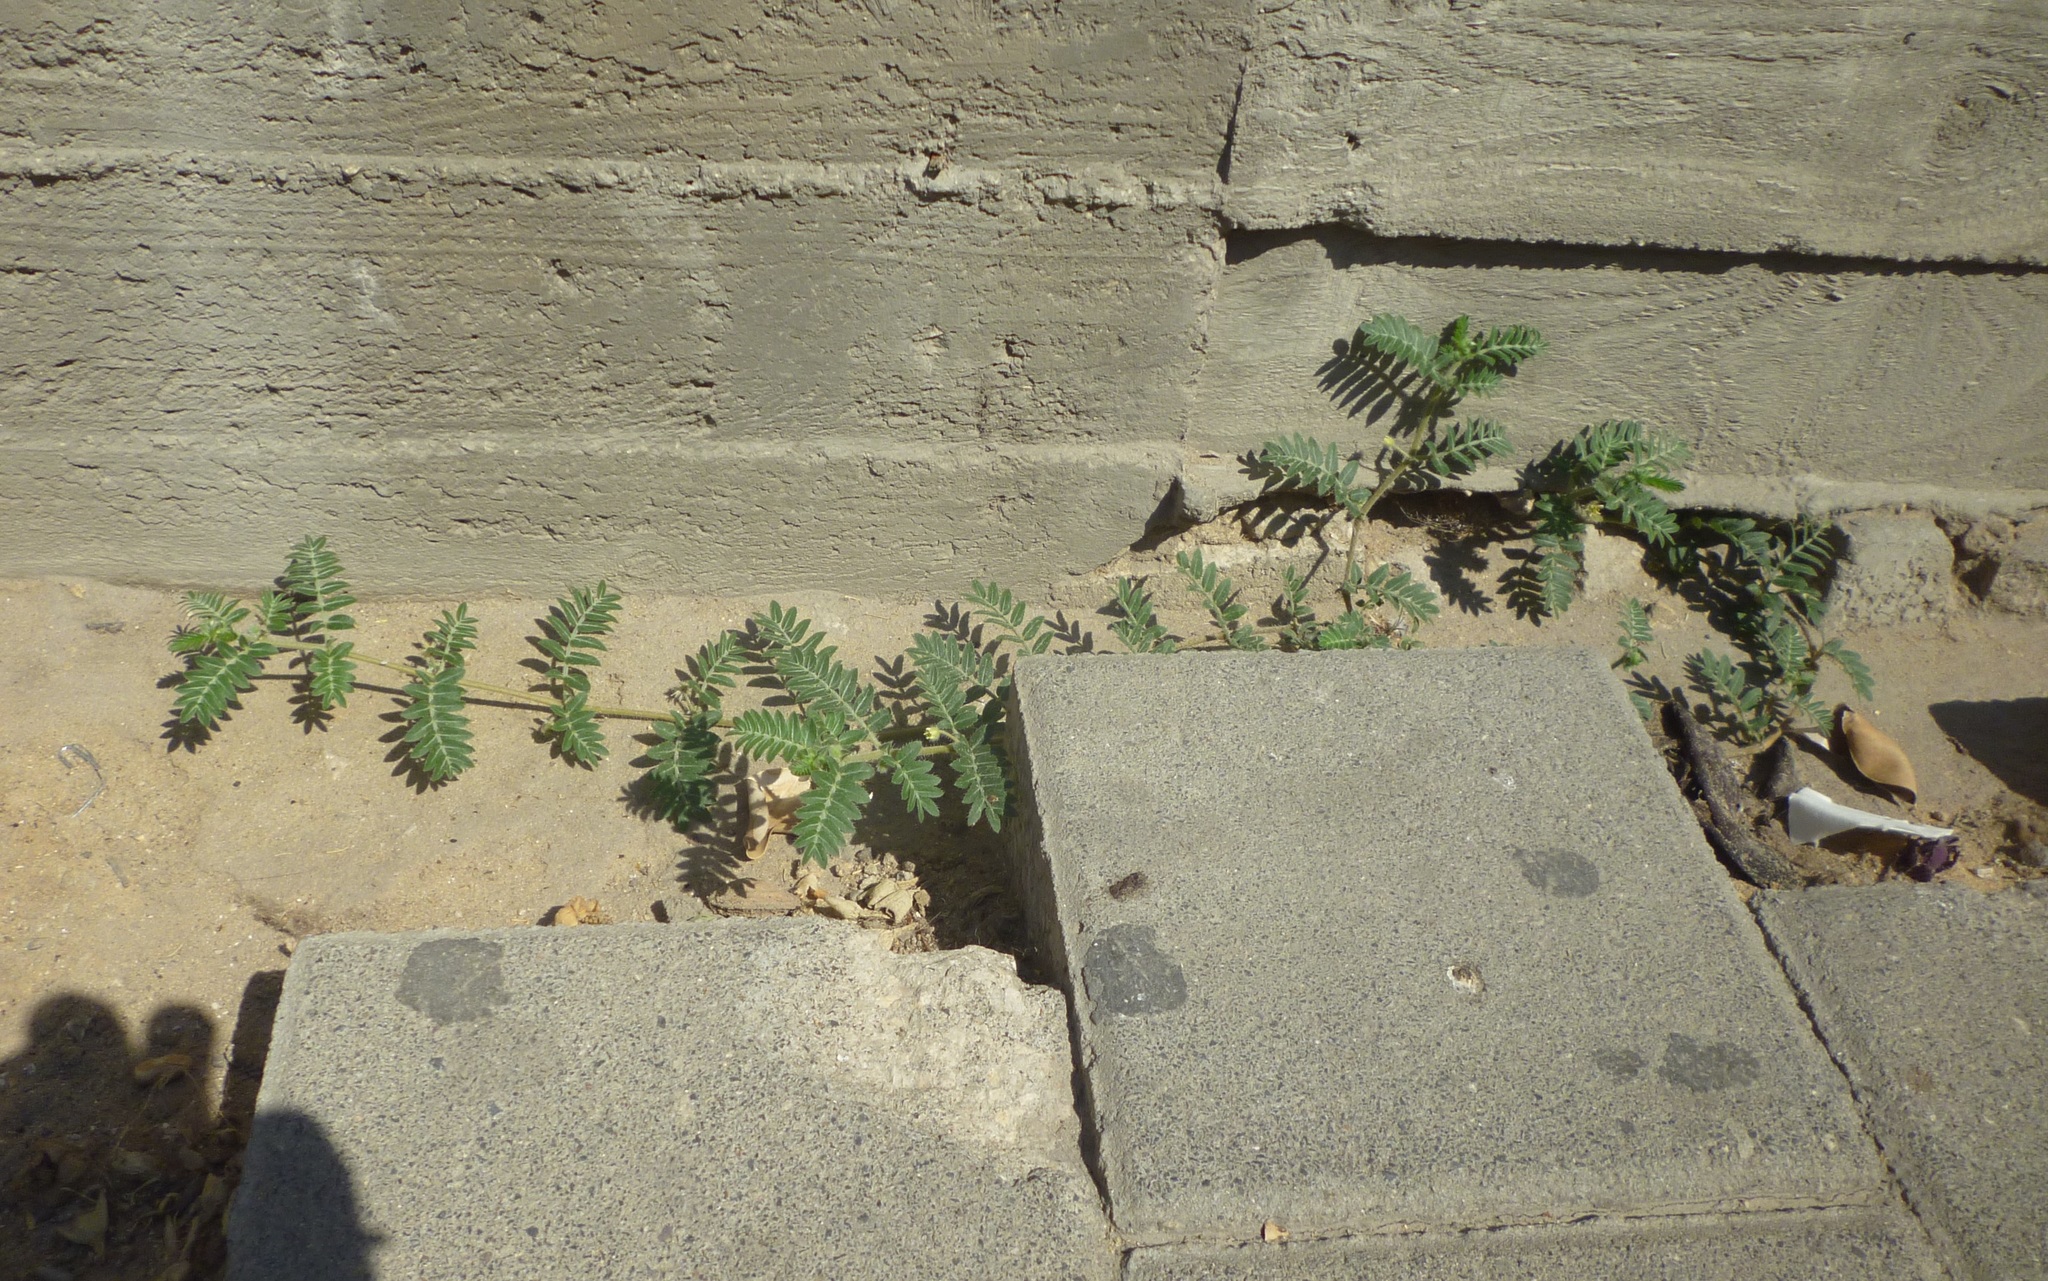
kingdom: Plantae
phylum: Tracheophyta
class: Magnoliopsida
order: Zygophyllales
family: Zygophyllaceae
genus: Tribulus
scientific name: Tribulus terrestris
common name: Puncturevine
